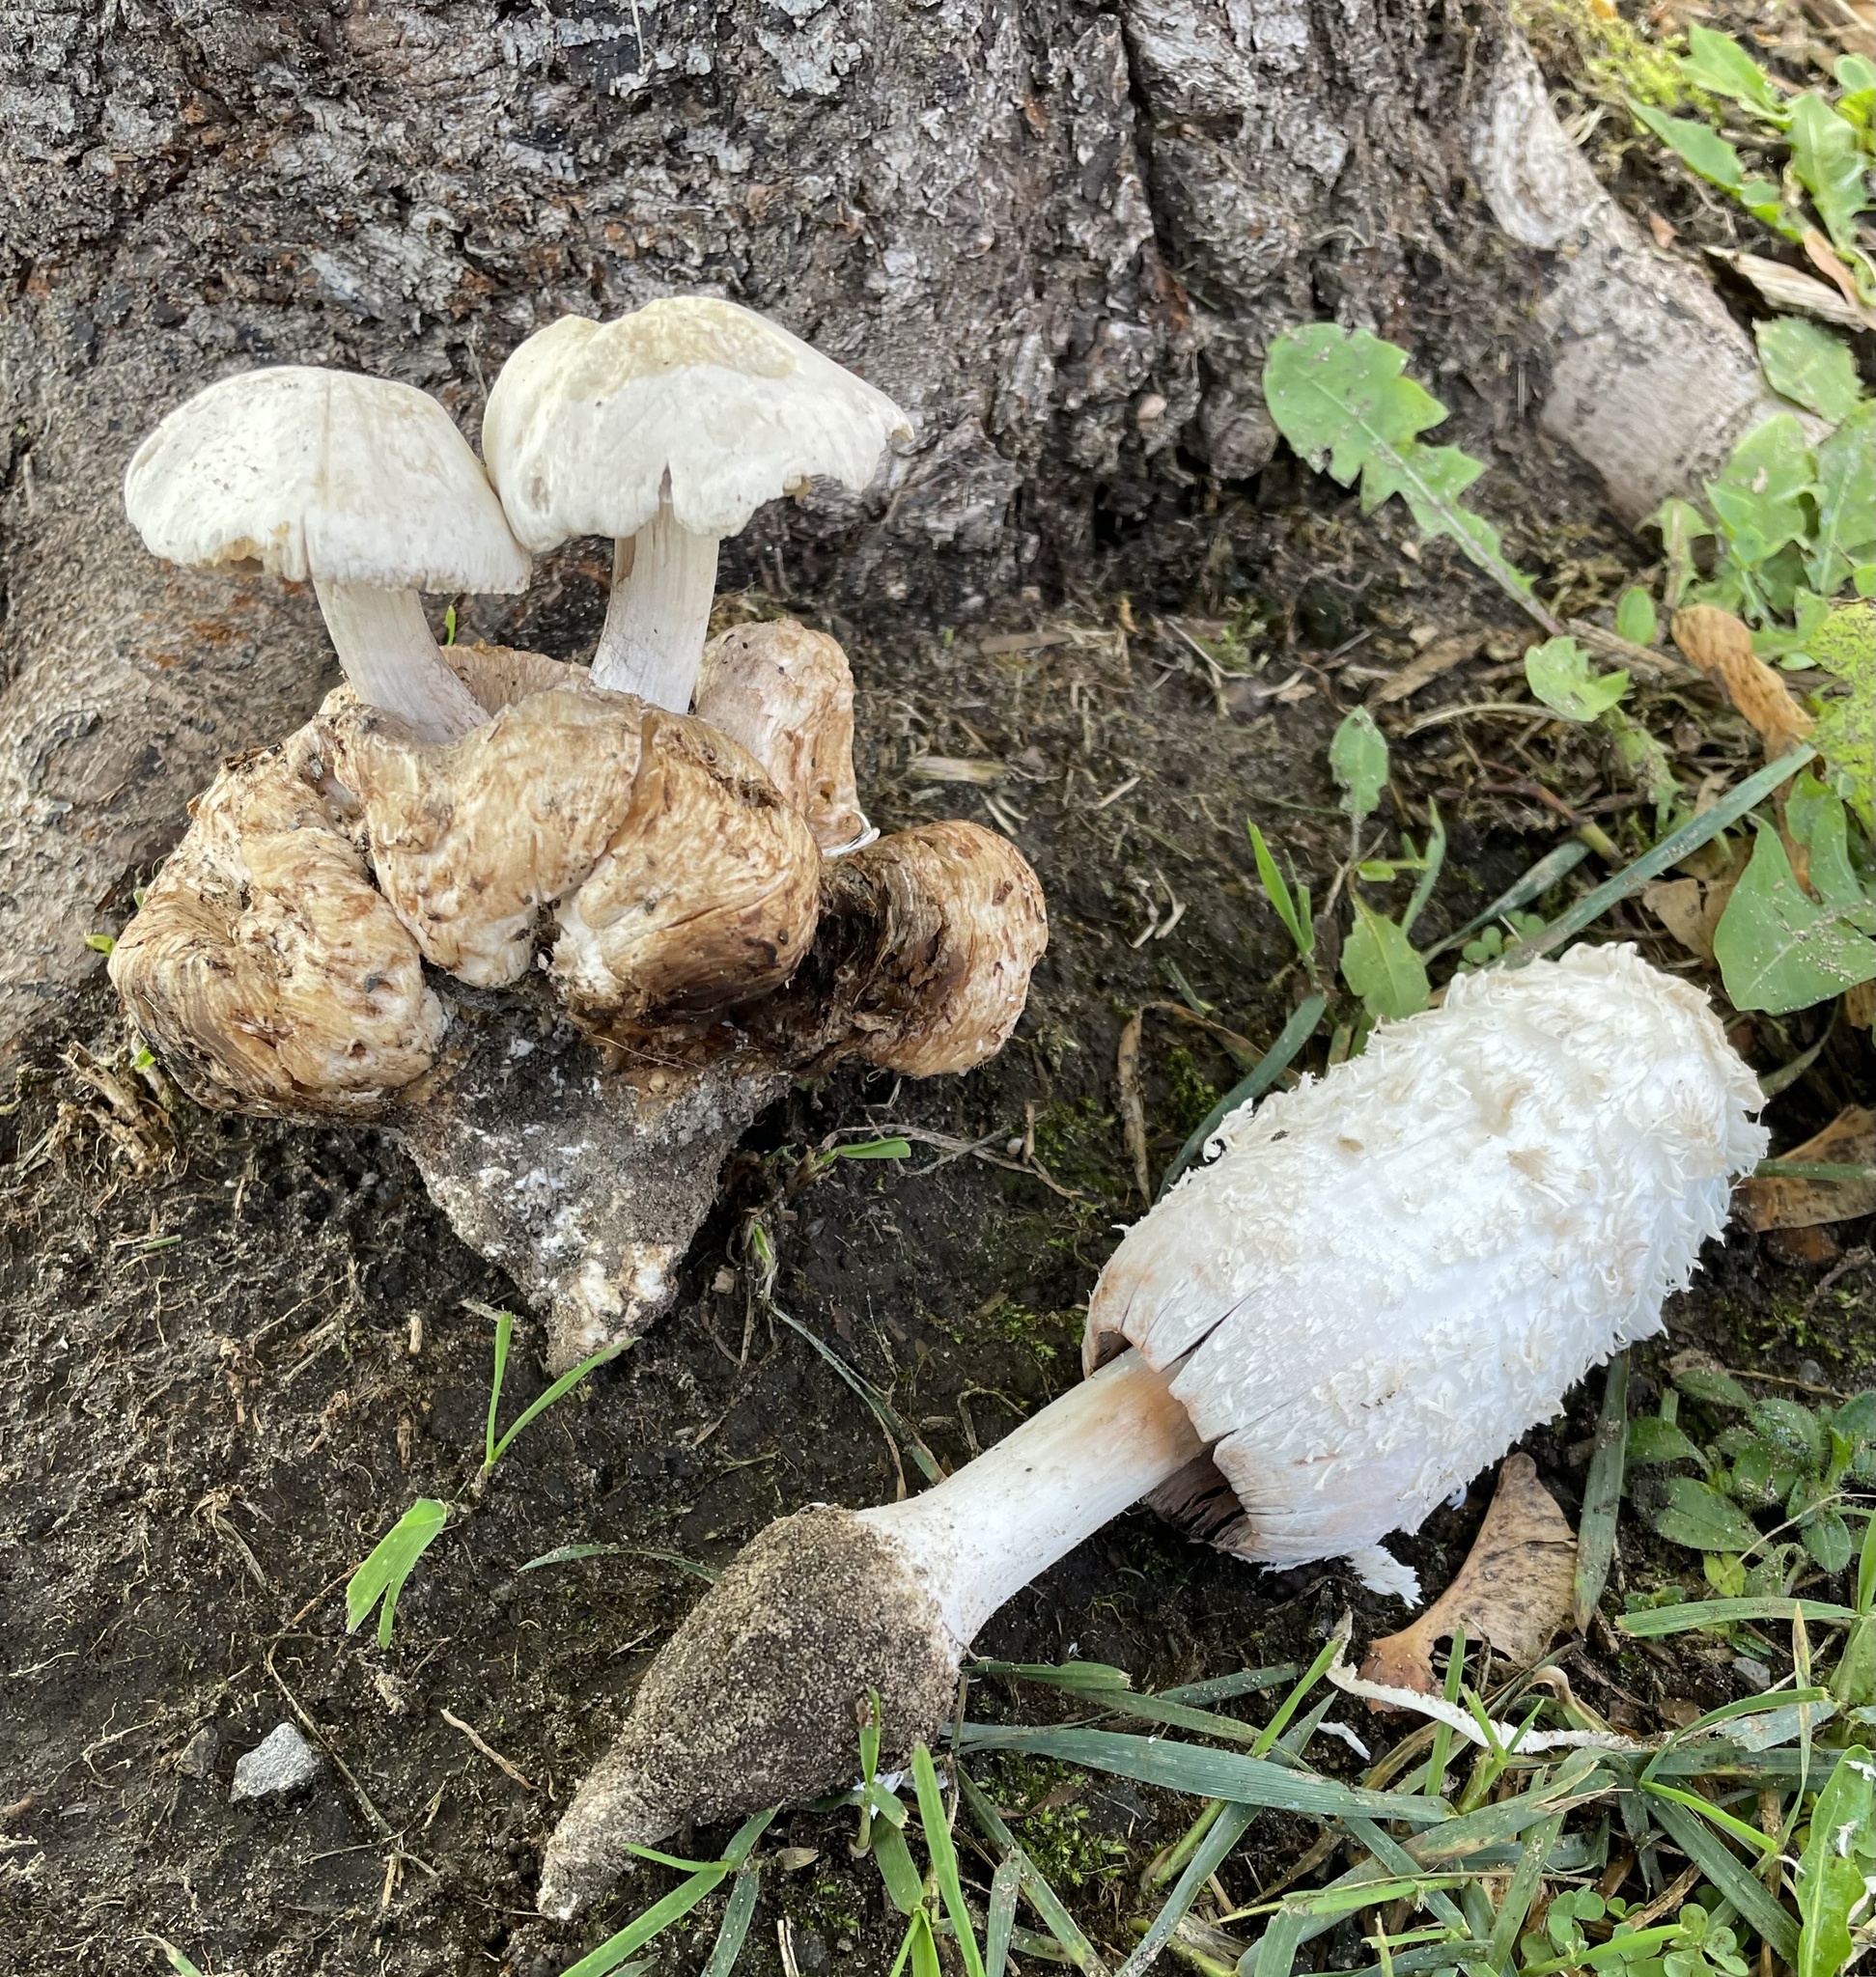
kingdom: Fungi
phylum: Basidiomycota
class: Agaricomycetes
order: Agaricales
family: Agaricaceae
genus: Coprinus
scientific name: Coprinus comatus
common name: Lawyer's wig
